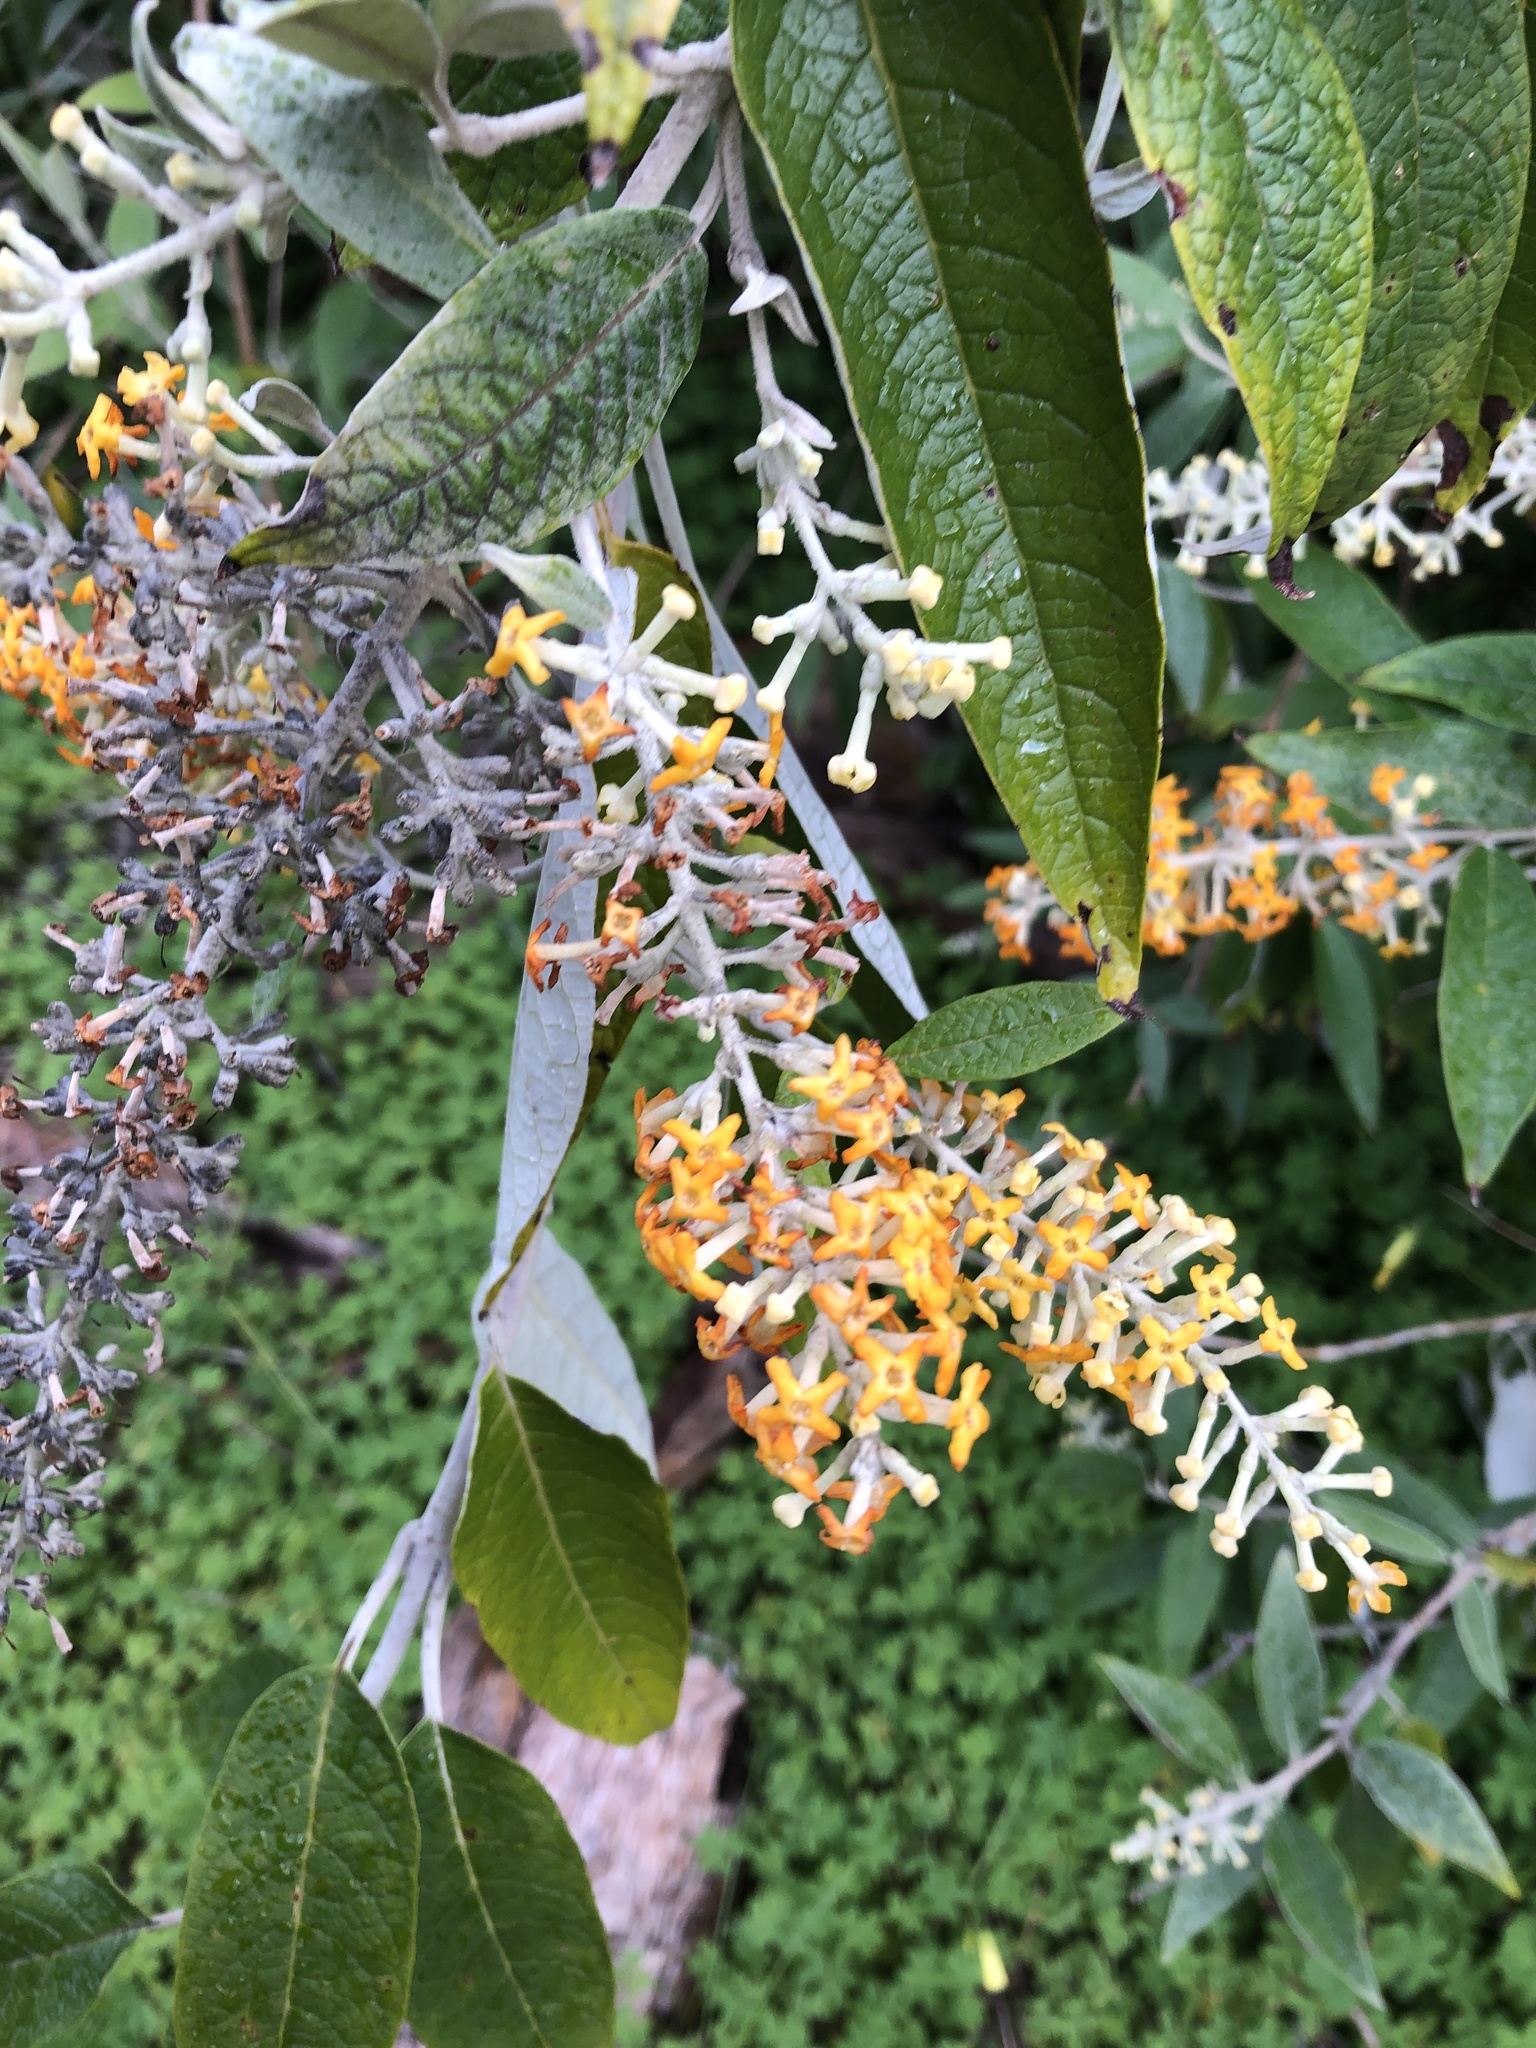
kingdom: Plantae
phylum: Tracheophyta
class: Magnoliopsida
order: Lamiales
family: Scrophulariaceae
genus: Buddleja
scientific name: Buddleja madagascariensis
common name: Smokebush
